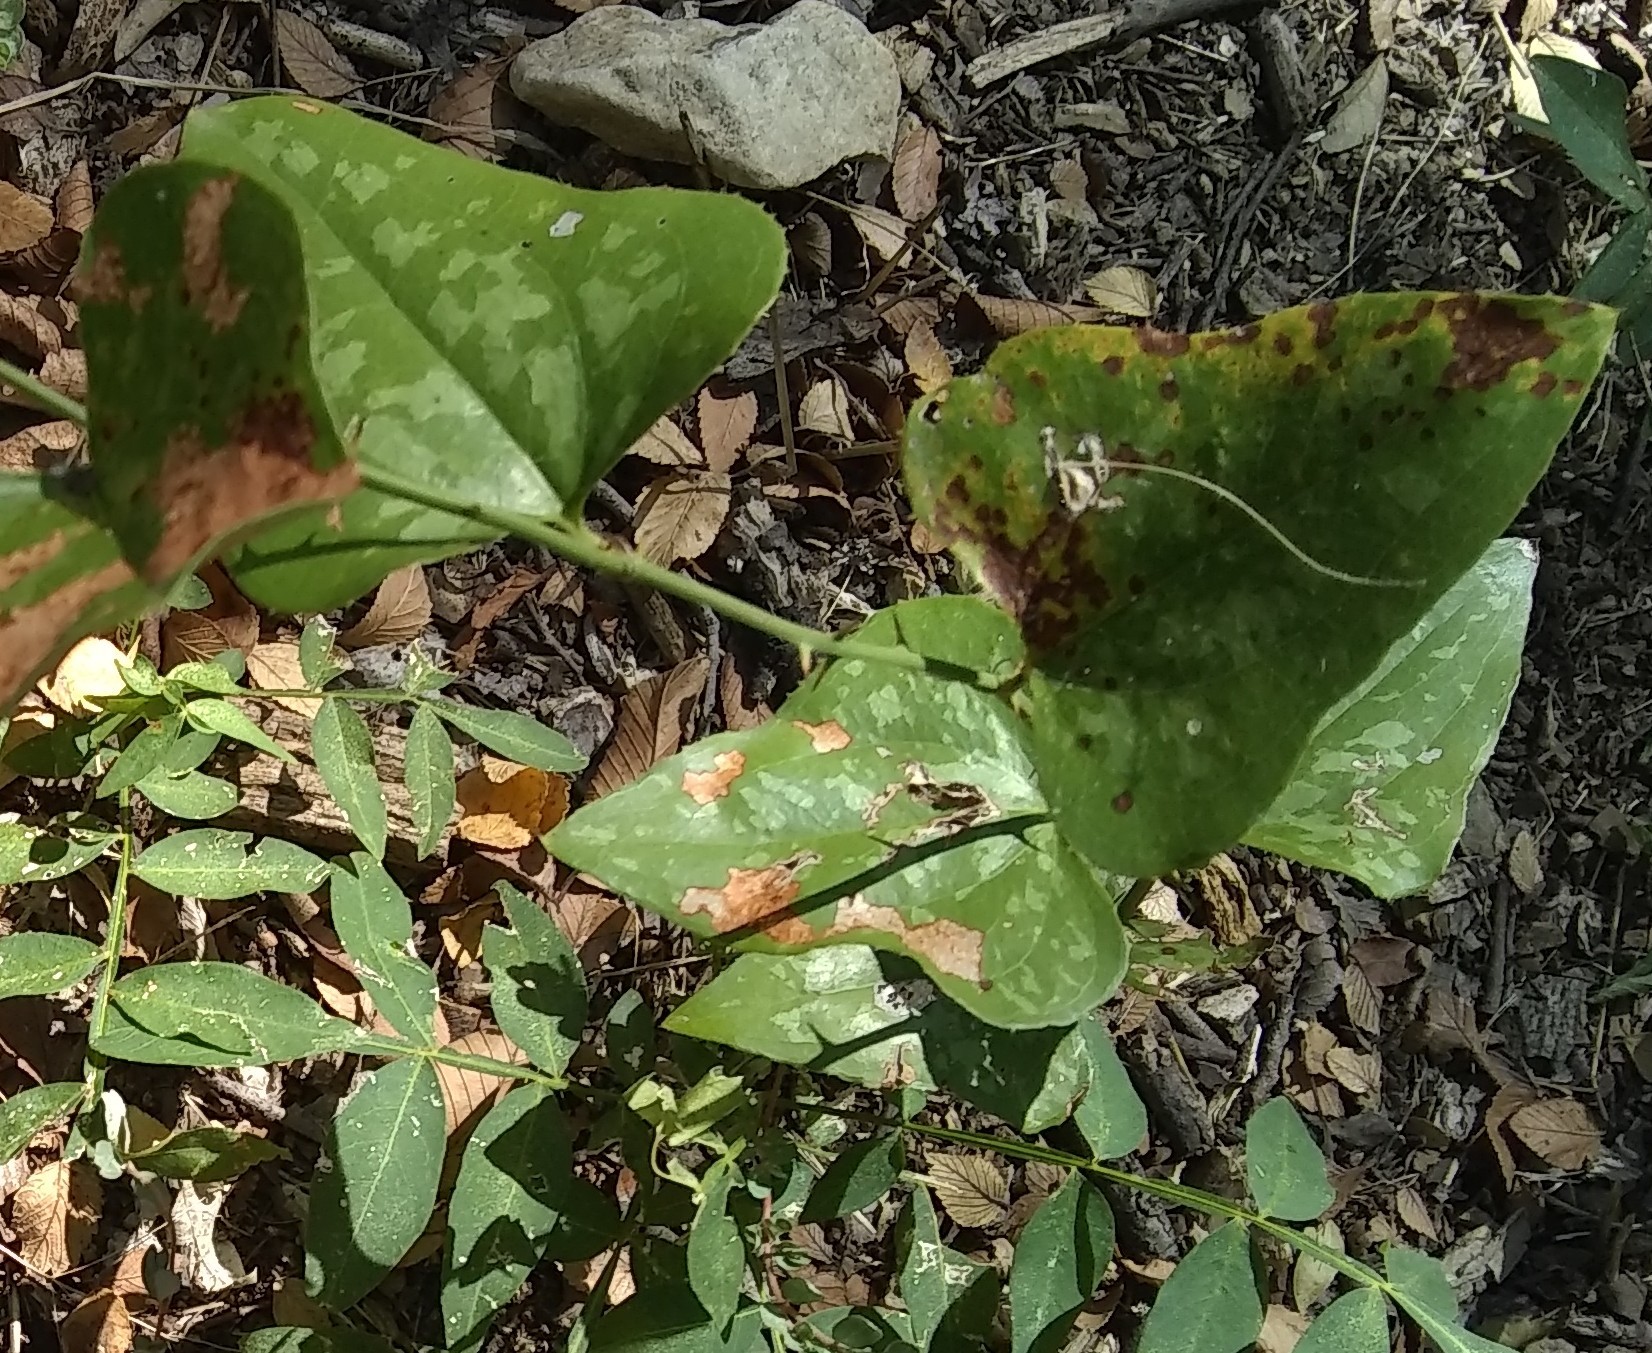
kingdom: Plantae
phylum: Tracheophyta
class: Liliopsida
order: Liliales
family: Smilacaceae
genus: Smilax
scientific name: Smilax bona-nox
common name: Catbrier
